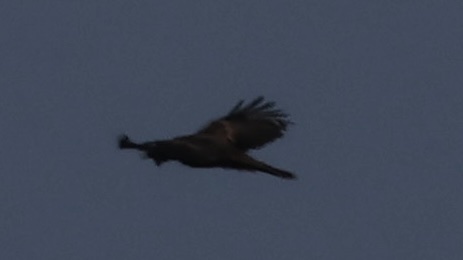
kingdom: Animalia
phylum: Chordata
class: Aves
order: Accipitriformes
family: Accipitridae
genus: Aquila
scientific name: Aquila chrysaetos
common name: Golden eagle
